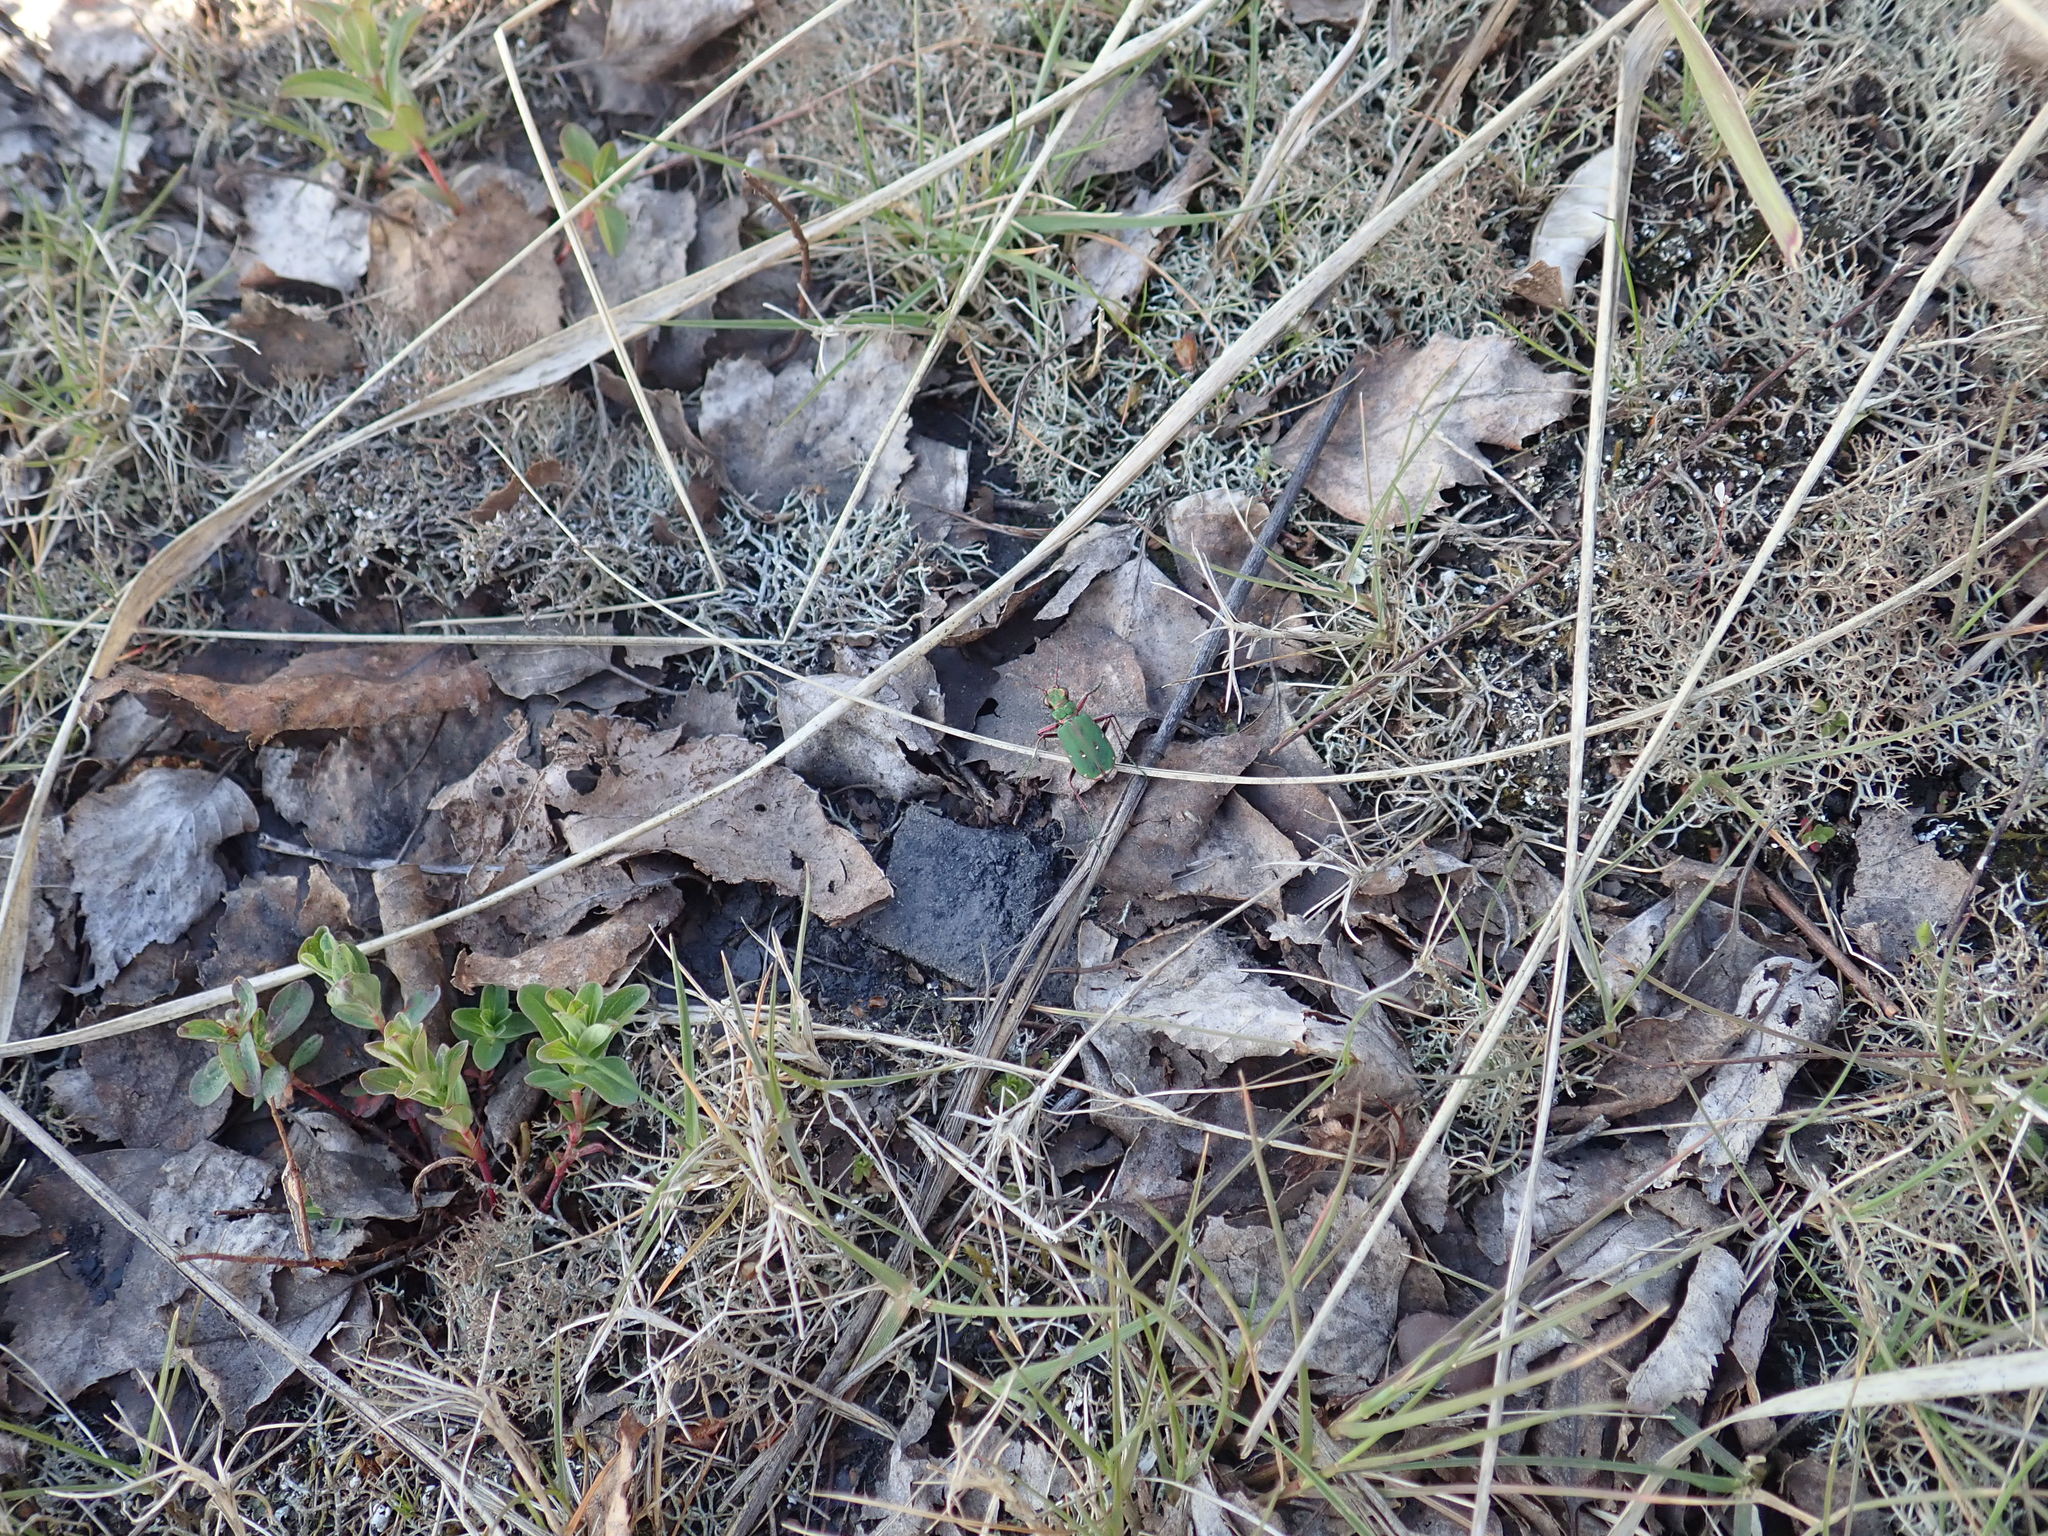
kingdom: Animalia
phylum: Arthropoda
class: Insecta
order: Coleoptera
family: Carabidae
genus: Cicindela
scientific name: Cicindela campestris
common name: Common tiger beetle
